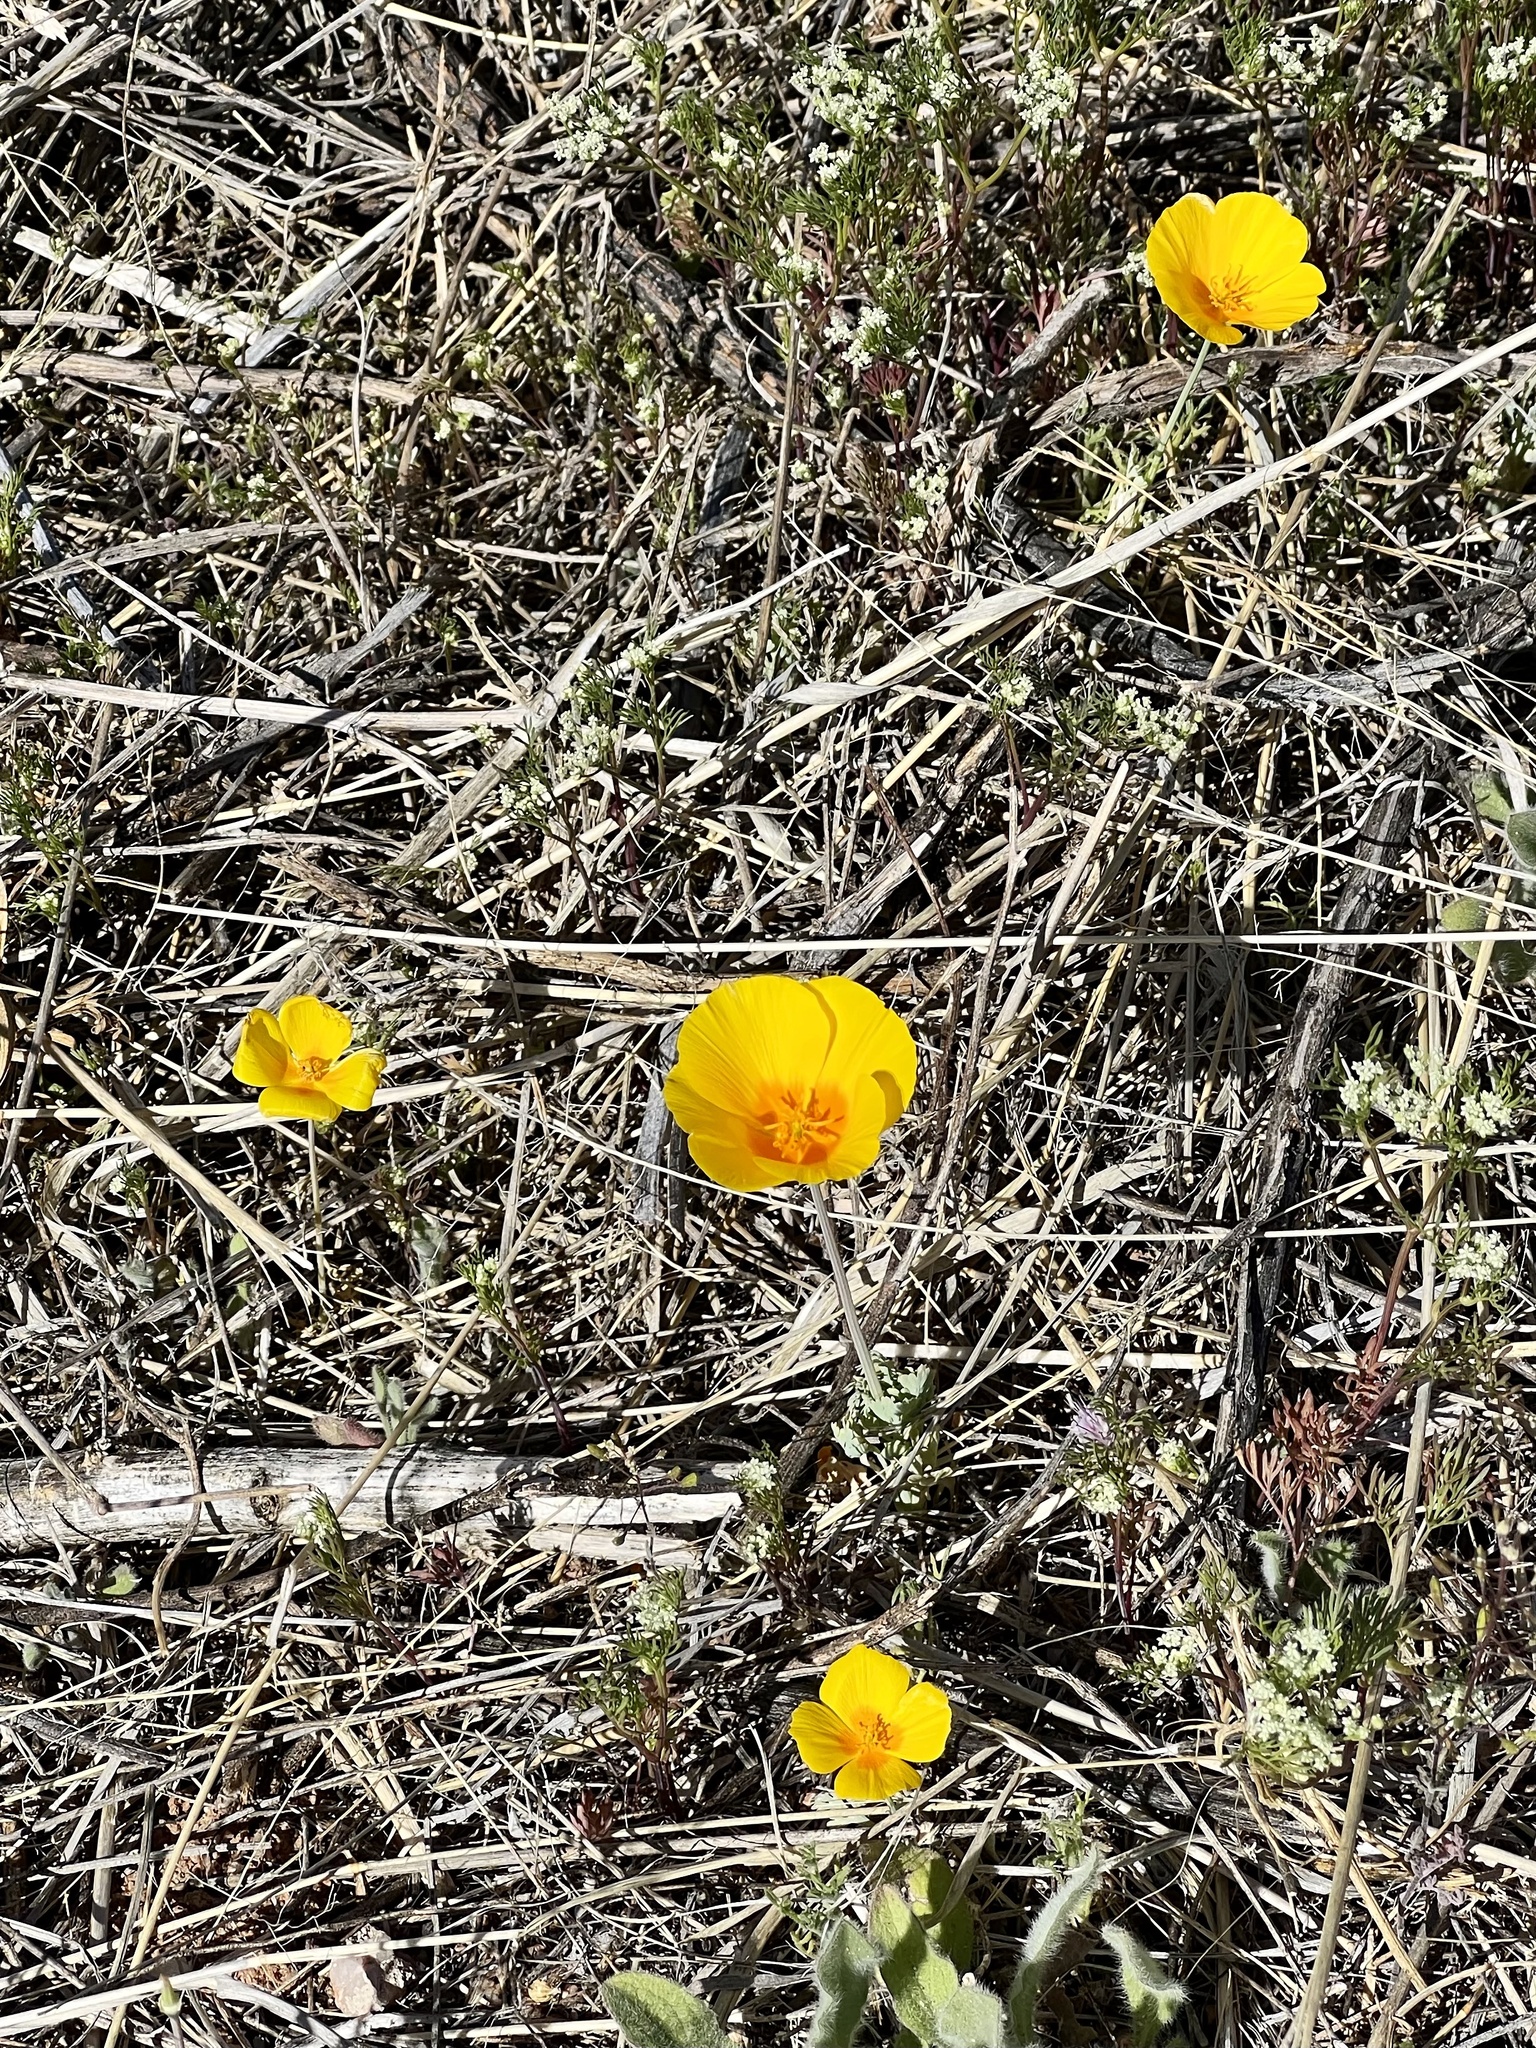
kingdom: Plantae
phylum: Tracheophyta
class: Magnoliopsida
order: Ranunculales
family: Papaveraceae
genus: Eschscholzia
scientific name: Eschscholzia californica
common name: California poppy
